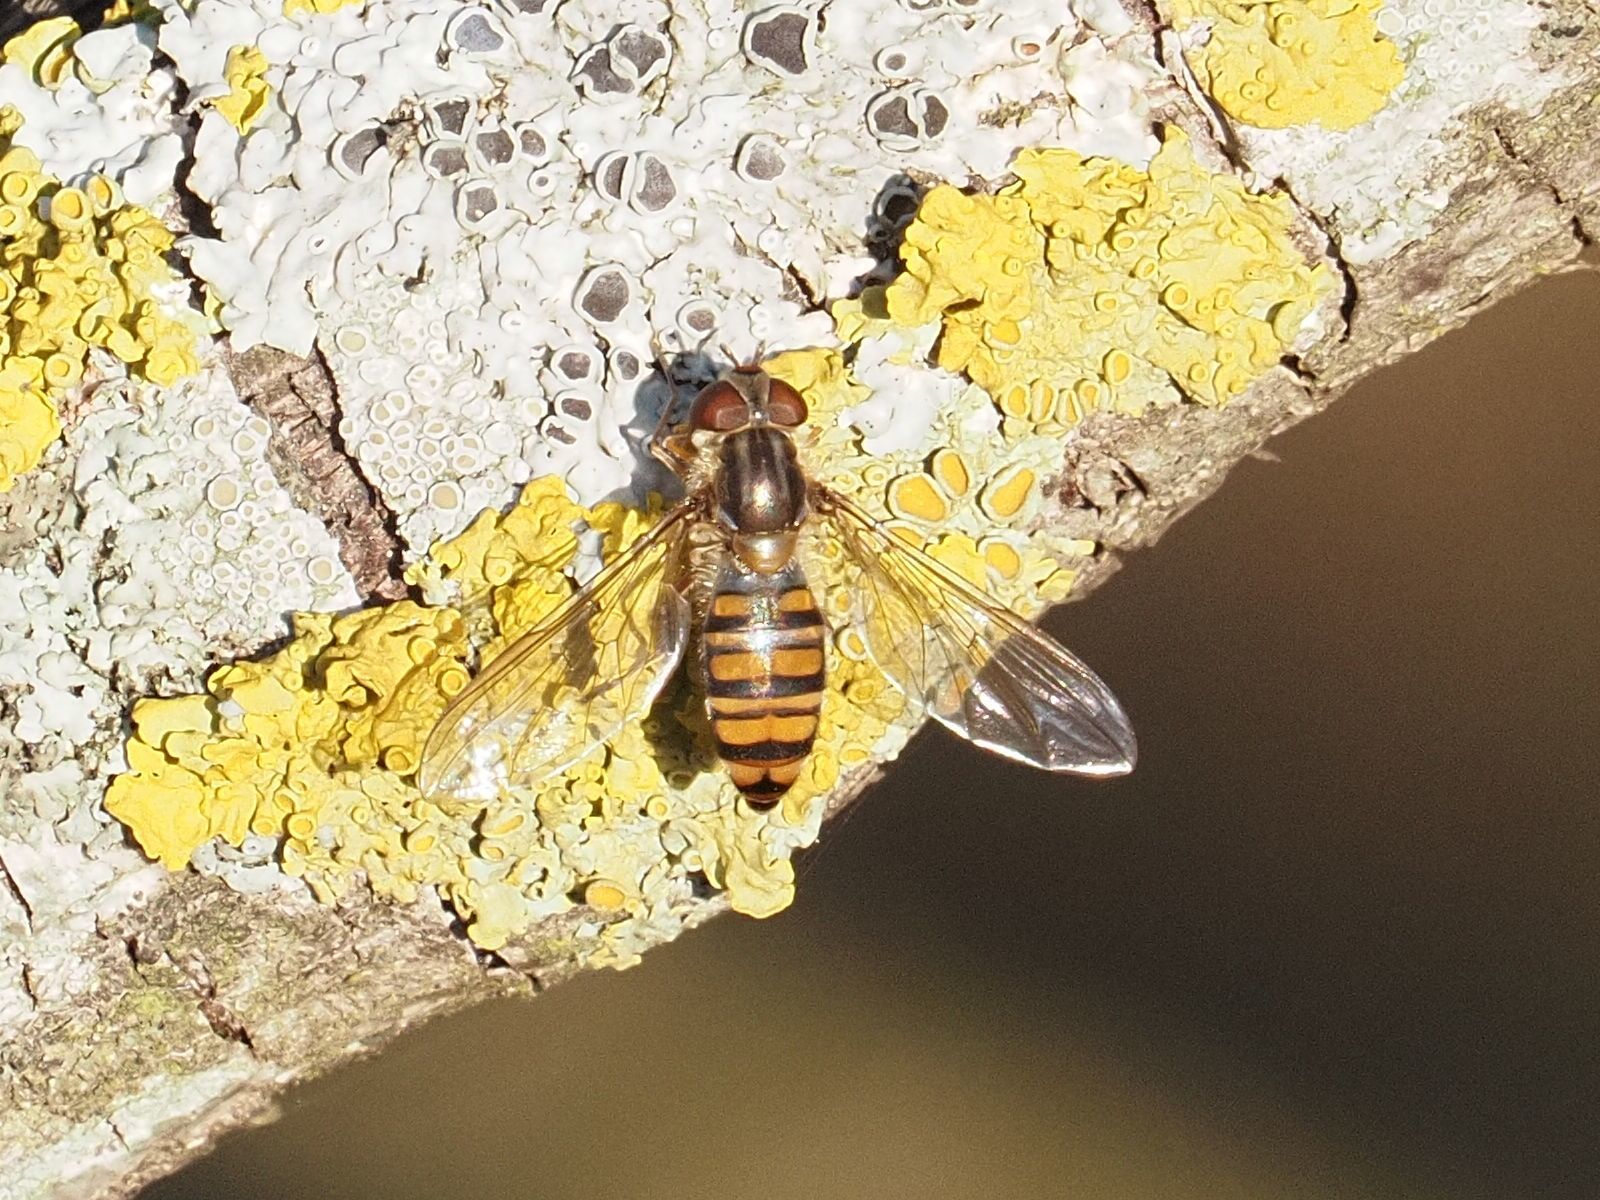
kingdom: Animalia
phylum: Arthropoda
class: Insecta
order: Diptera
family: Syrphidae
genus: Episyrphus
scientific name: Episyrphus balteatus
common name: Marmalade hoverfly
